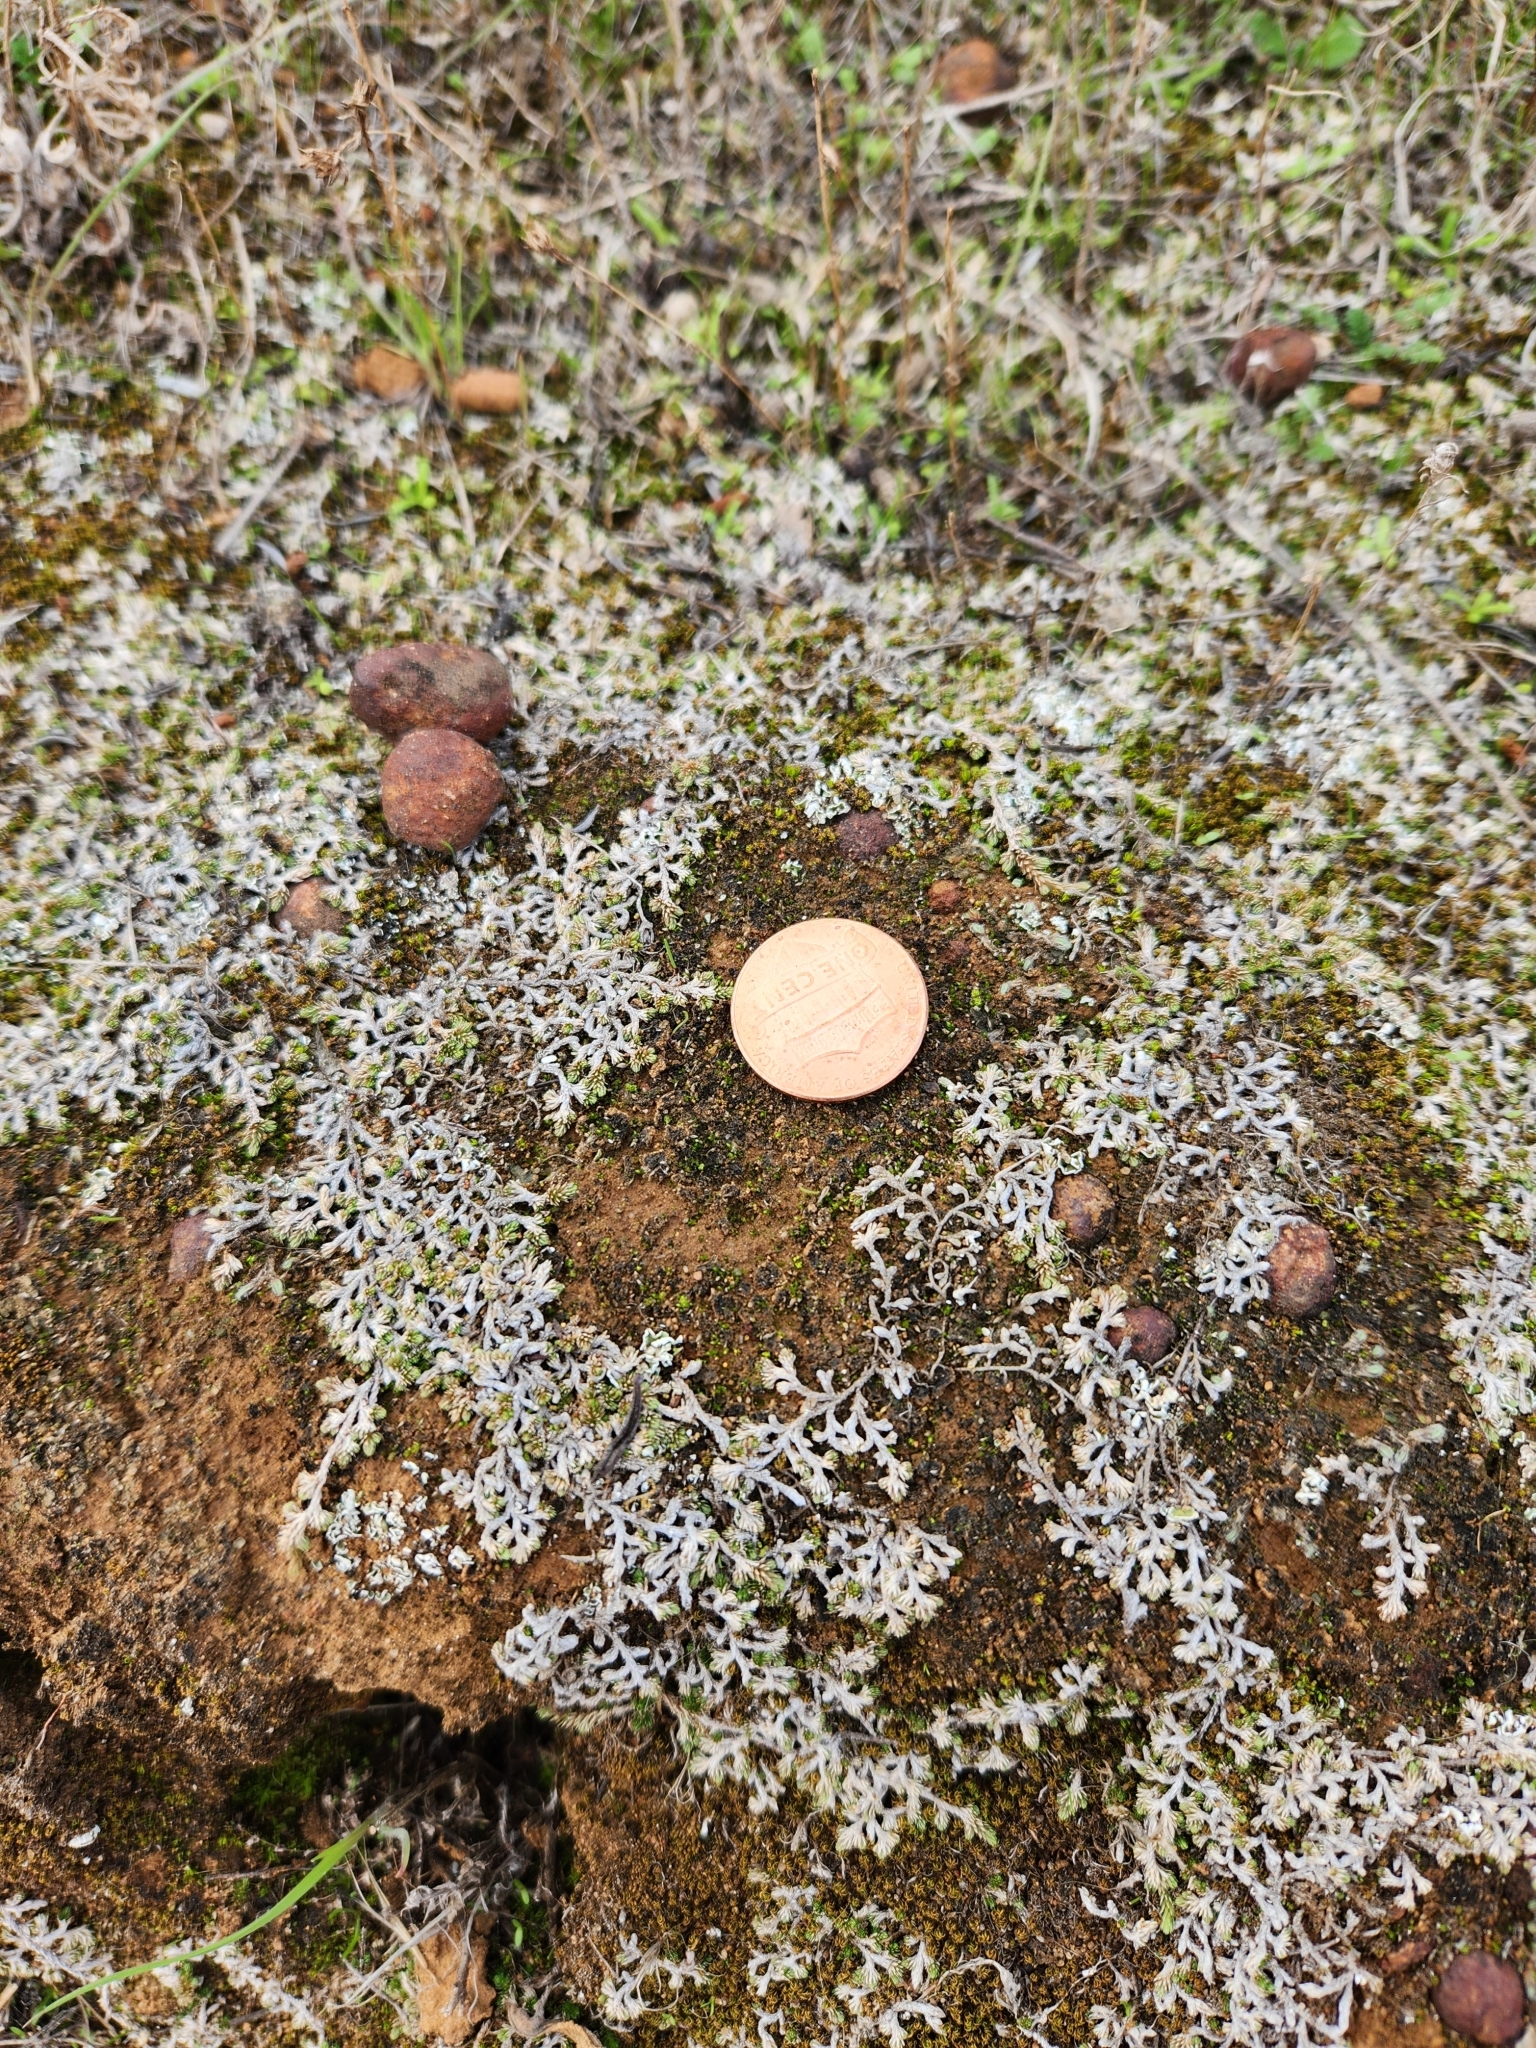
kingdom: Plantae
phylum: Tracheophyta
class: Lycopodiopsida
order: Selaginellales
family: Selaginellaceae
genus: Selaginella
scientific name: Selaginella cinerascens
